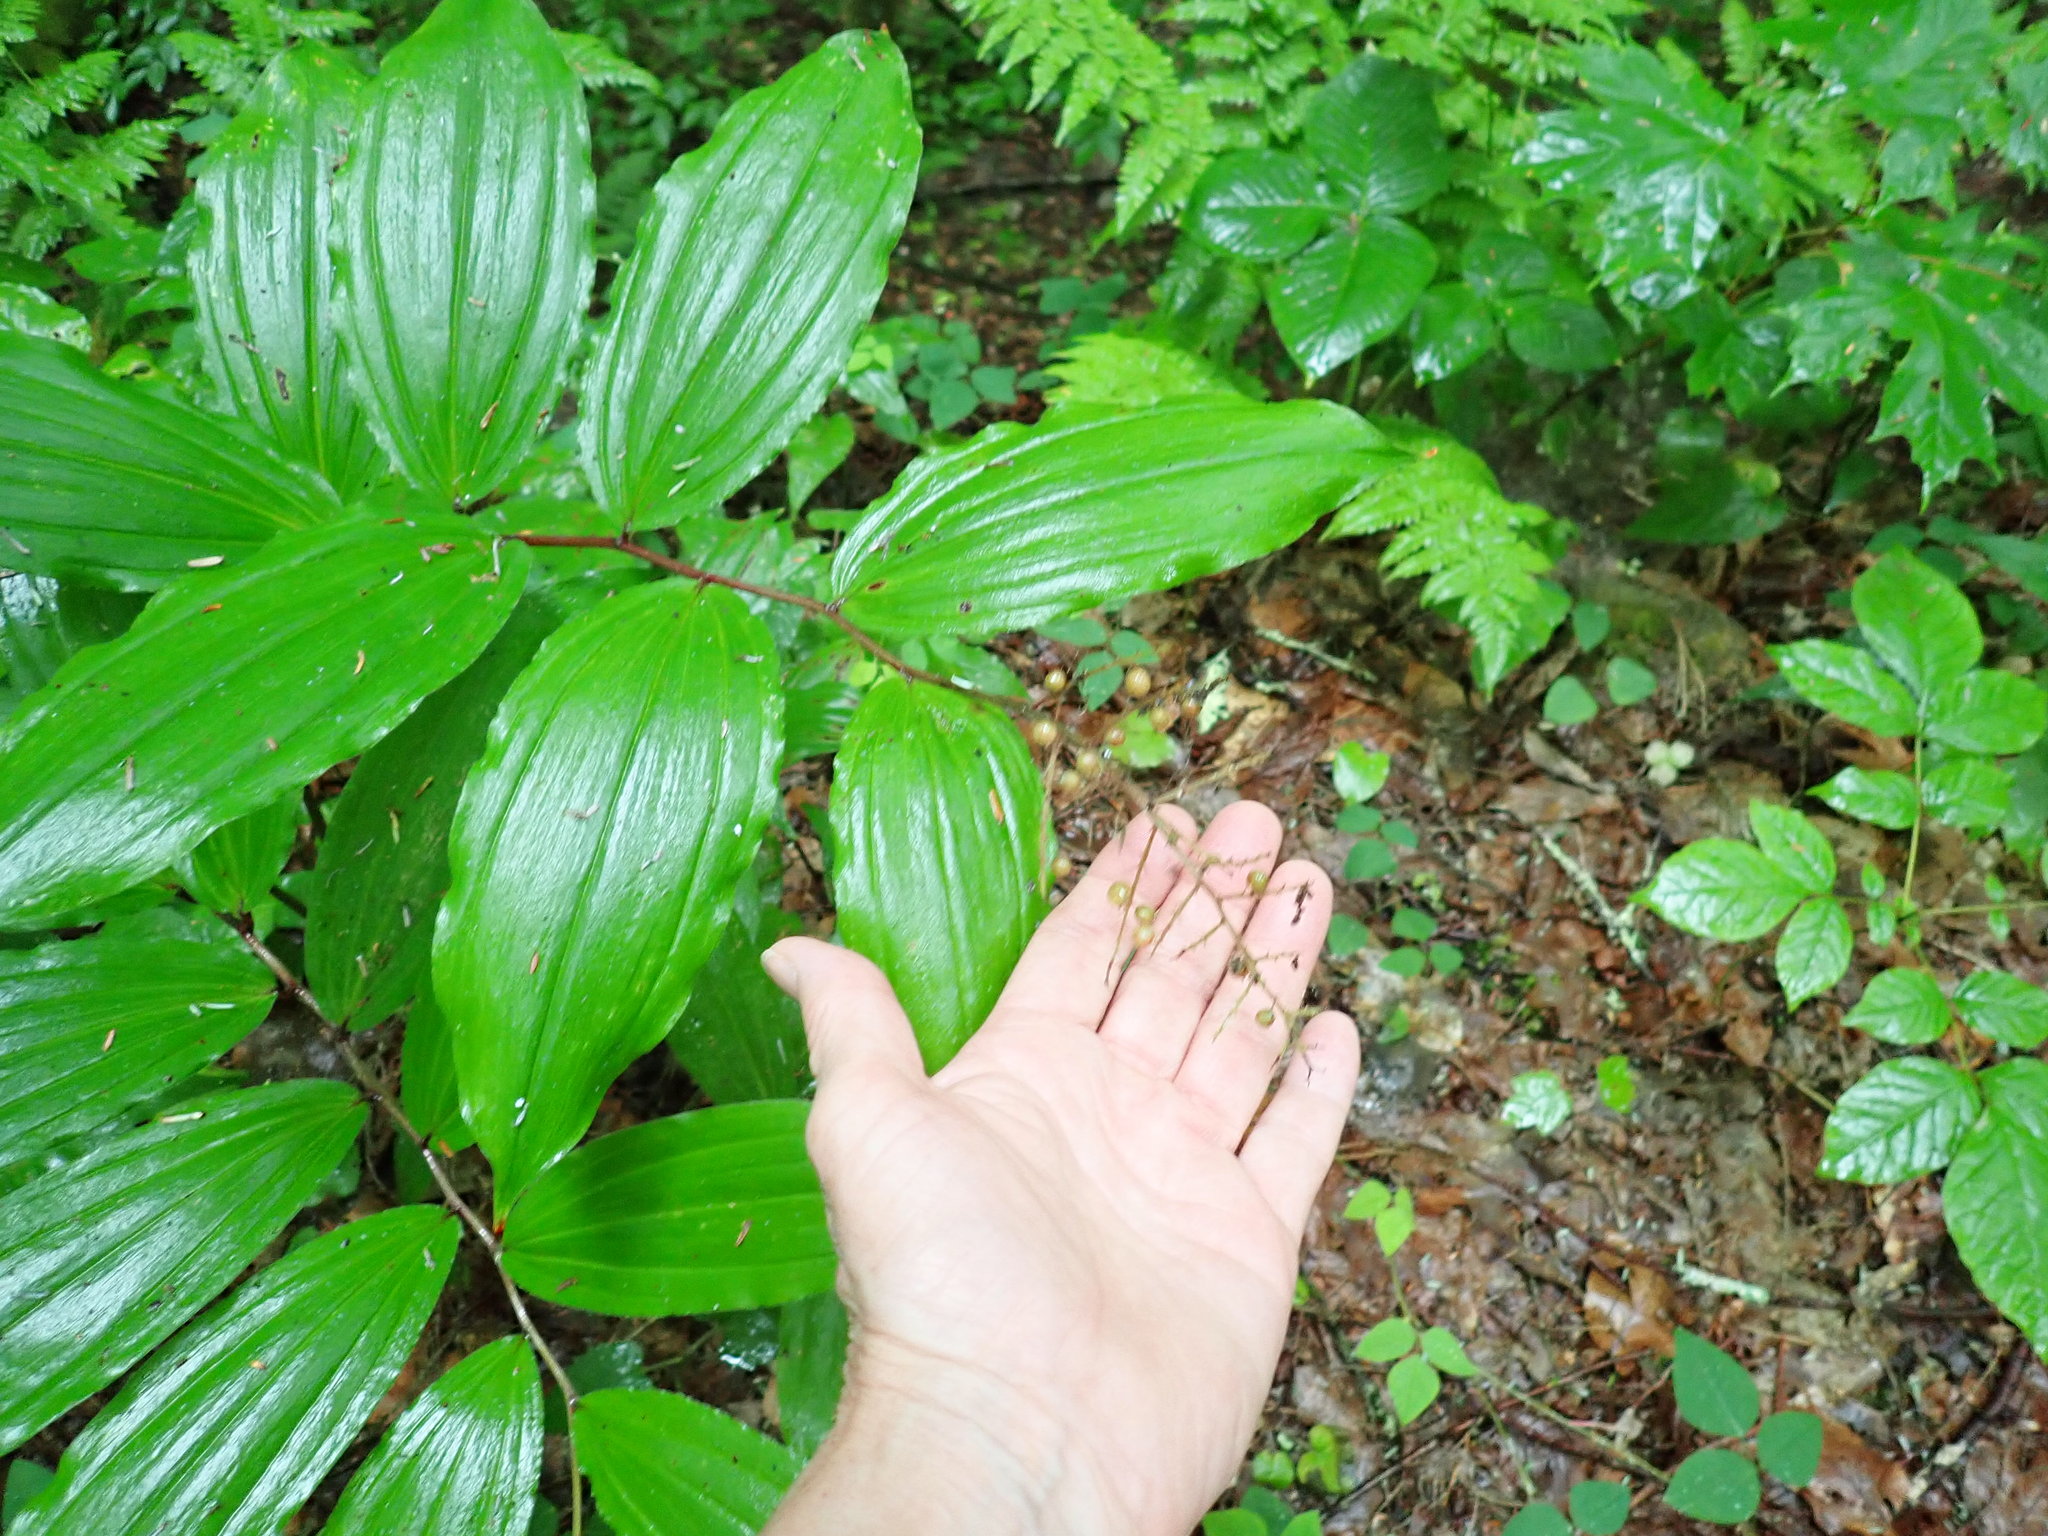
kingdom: Plantae
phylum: Tracheophyta
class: Liliopsida
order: Asparagales
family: Asparagaceae
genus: Maianthemum
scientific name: Maianthemum racemosum
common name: False spikenard
